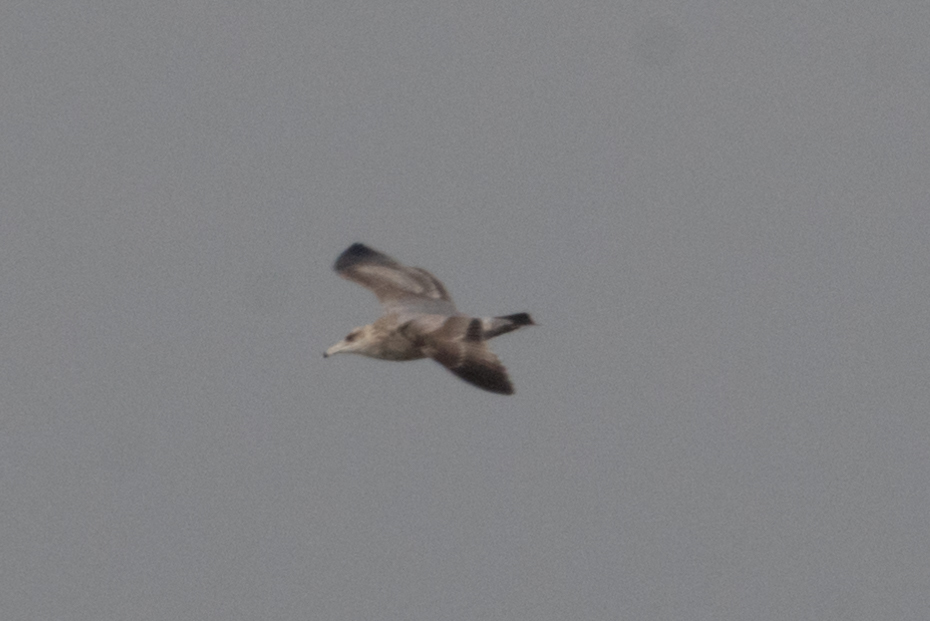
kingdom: Animalia
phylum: Chordata
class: Aves
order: Charadriiformes
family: Laridae
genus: Larus
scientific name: Larus californicus
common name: California gull
